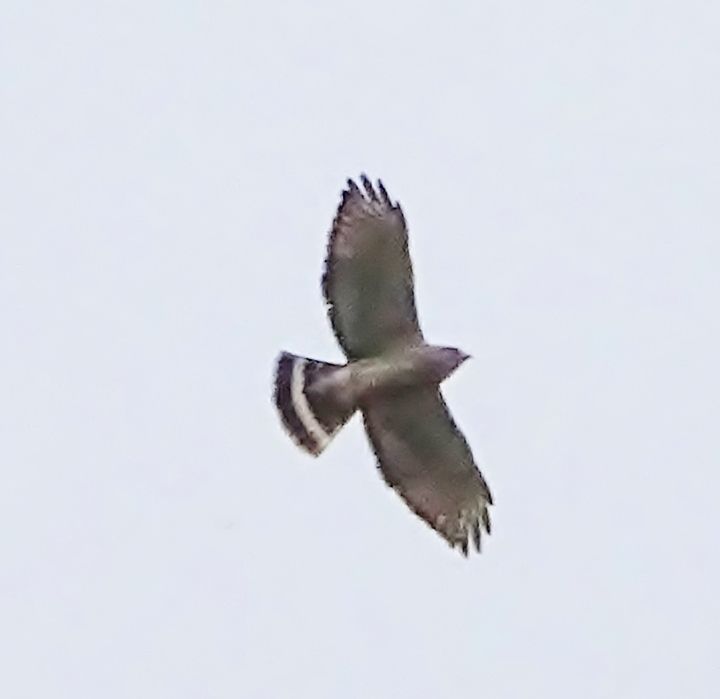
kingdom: Animalia
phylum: Chordata
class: Aves
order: Accipitriformes
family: Accipitridae
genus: Buteo
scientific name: Buteo platypterus
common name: Broad-winged hawk
